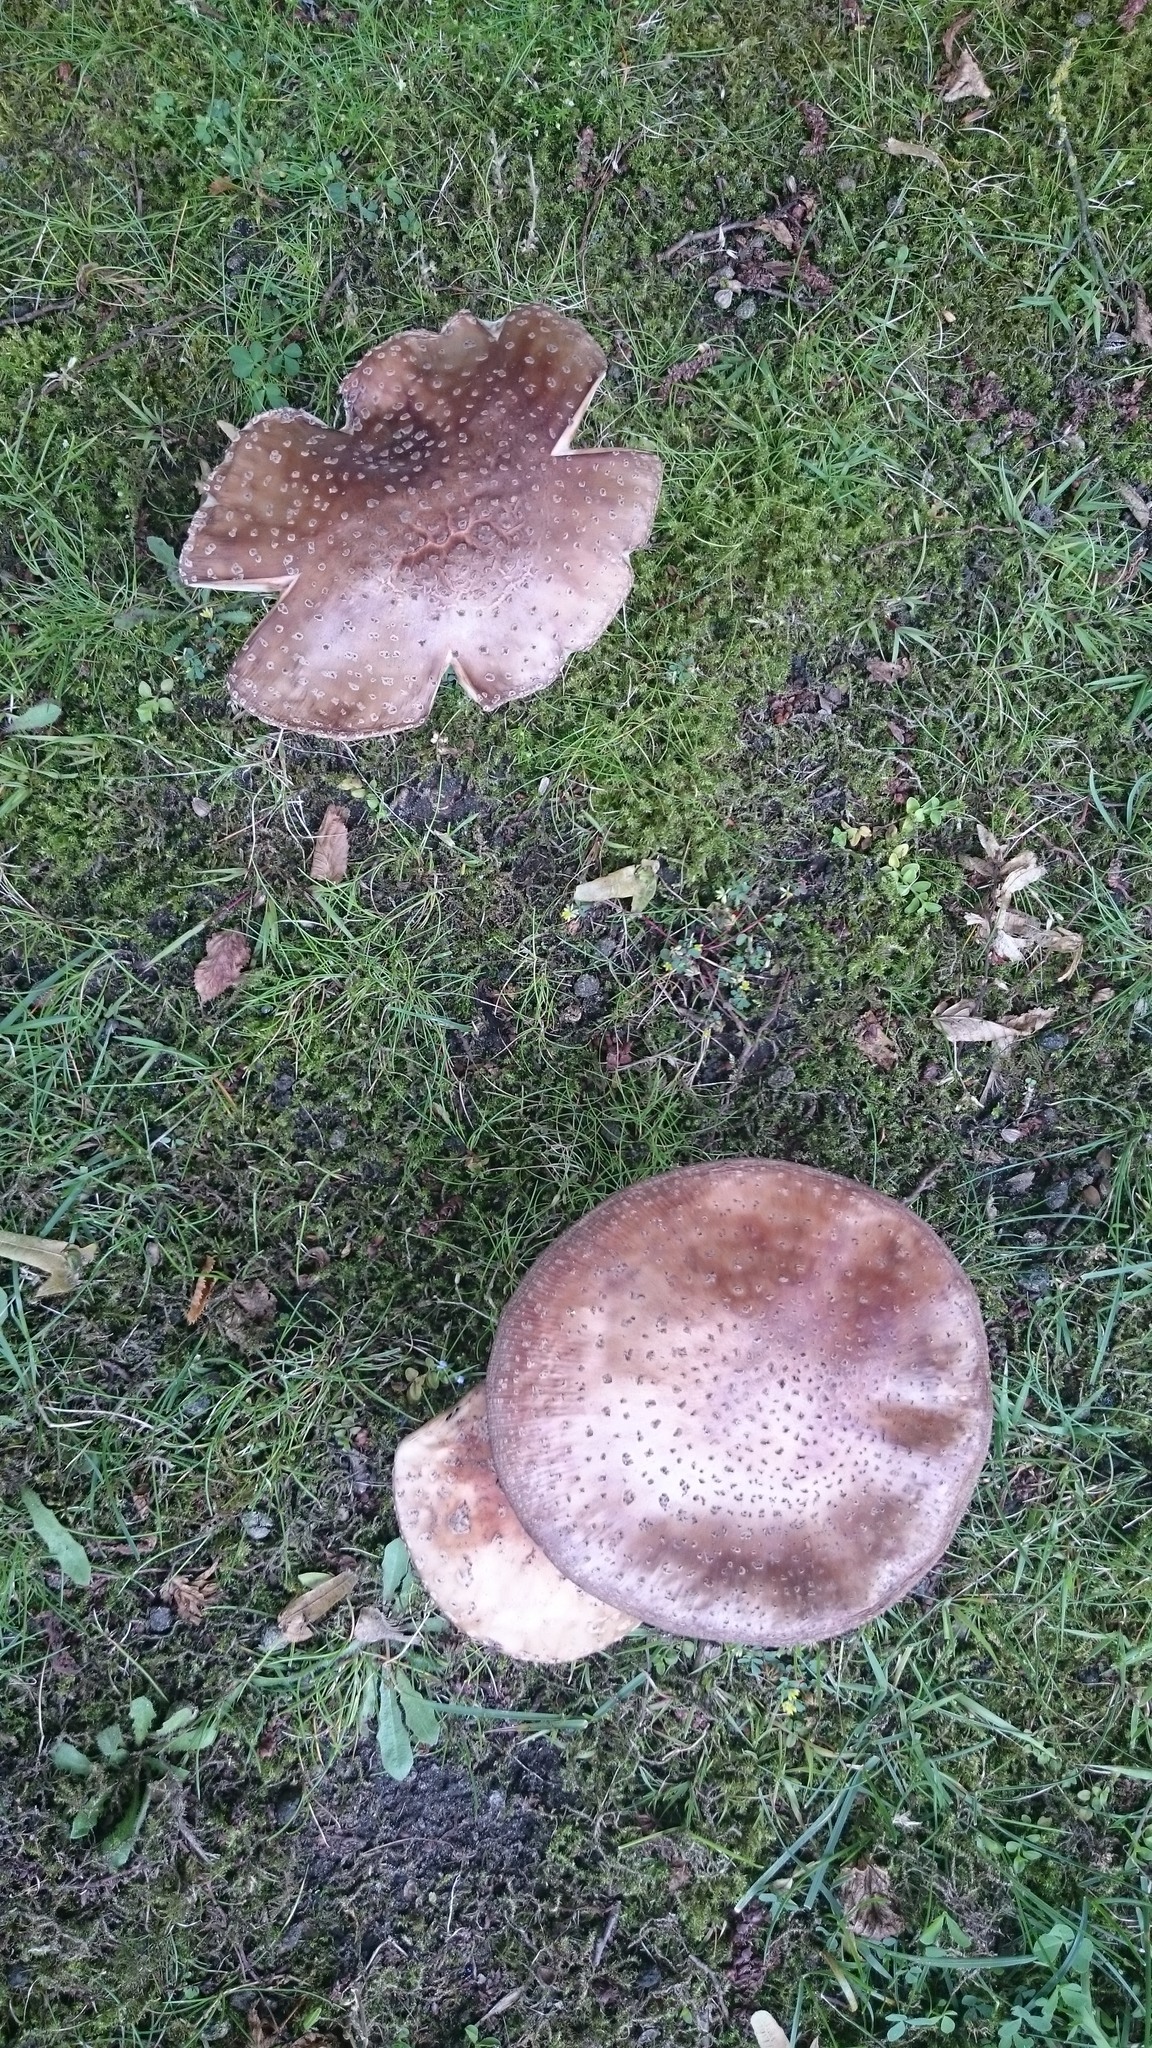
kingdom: Fungi
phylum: Basidiomycota
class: Agaricomycetes
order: Agaricales
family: Amanitaceae
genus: Amanita
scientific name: Amanita rubescens
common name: Blusher
